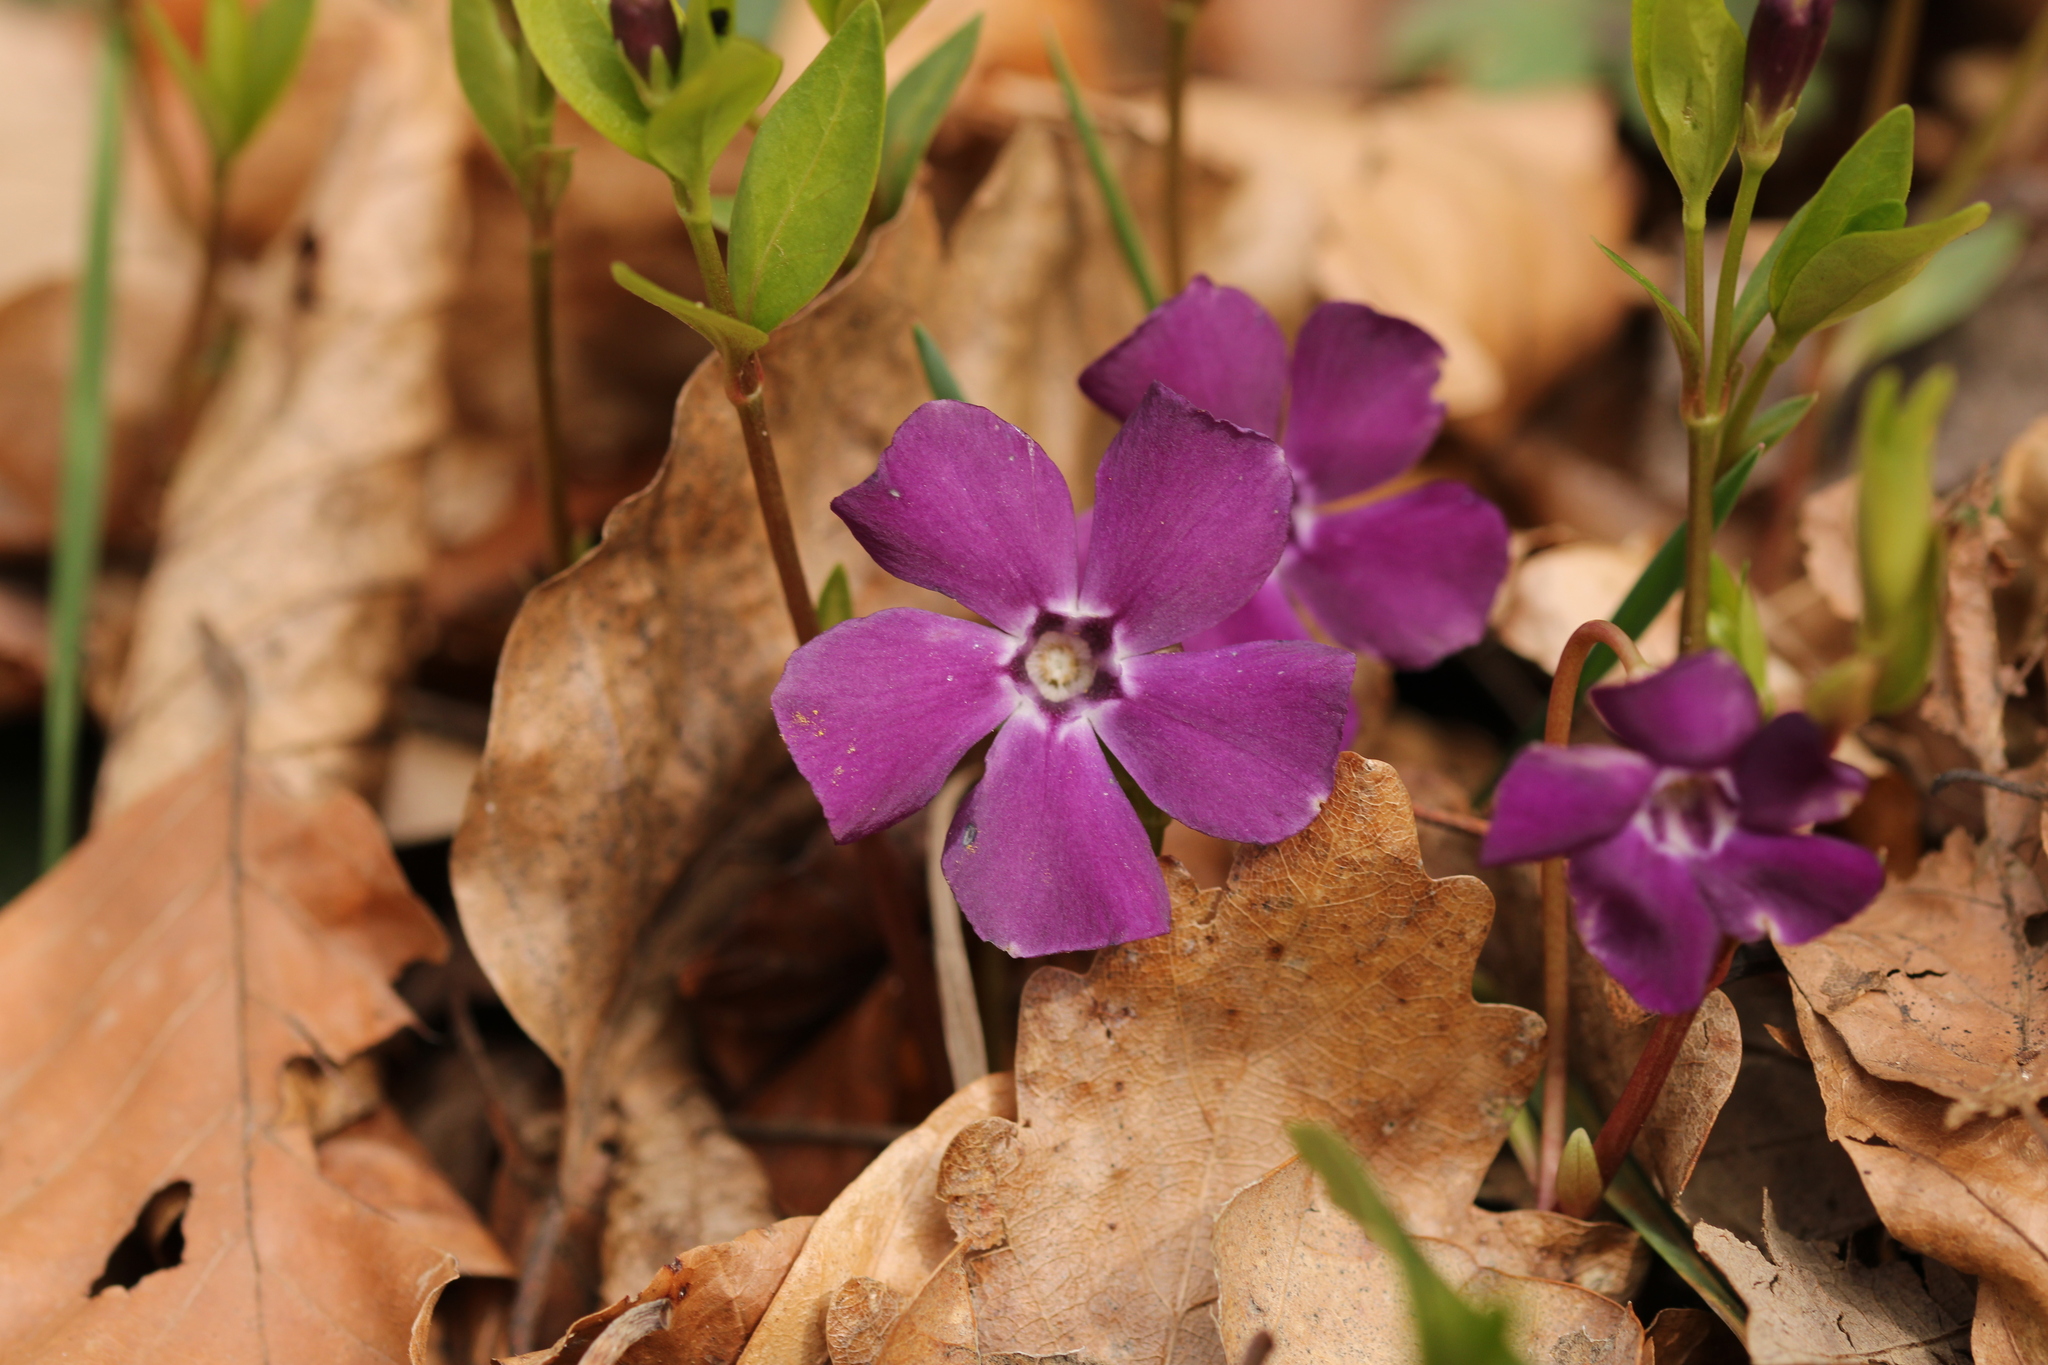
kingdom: Plantae
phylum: Tracheophyta
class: Magnoliopsida
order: Gentianales
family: Apocynaceae
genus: Vinca
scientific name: Vinca minor
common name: Lesser periwinkle
